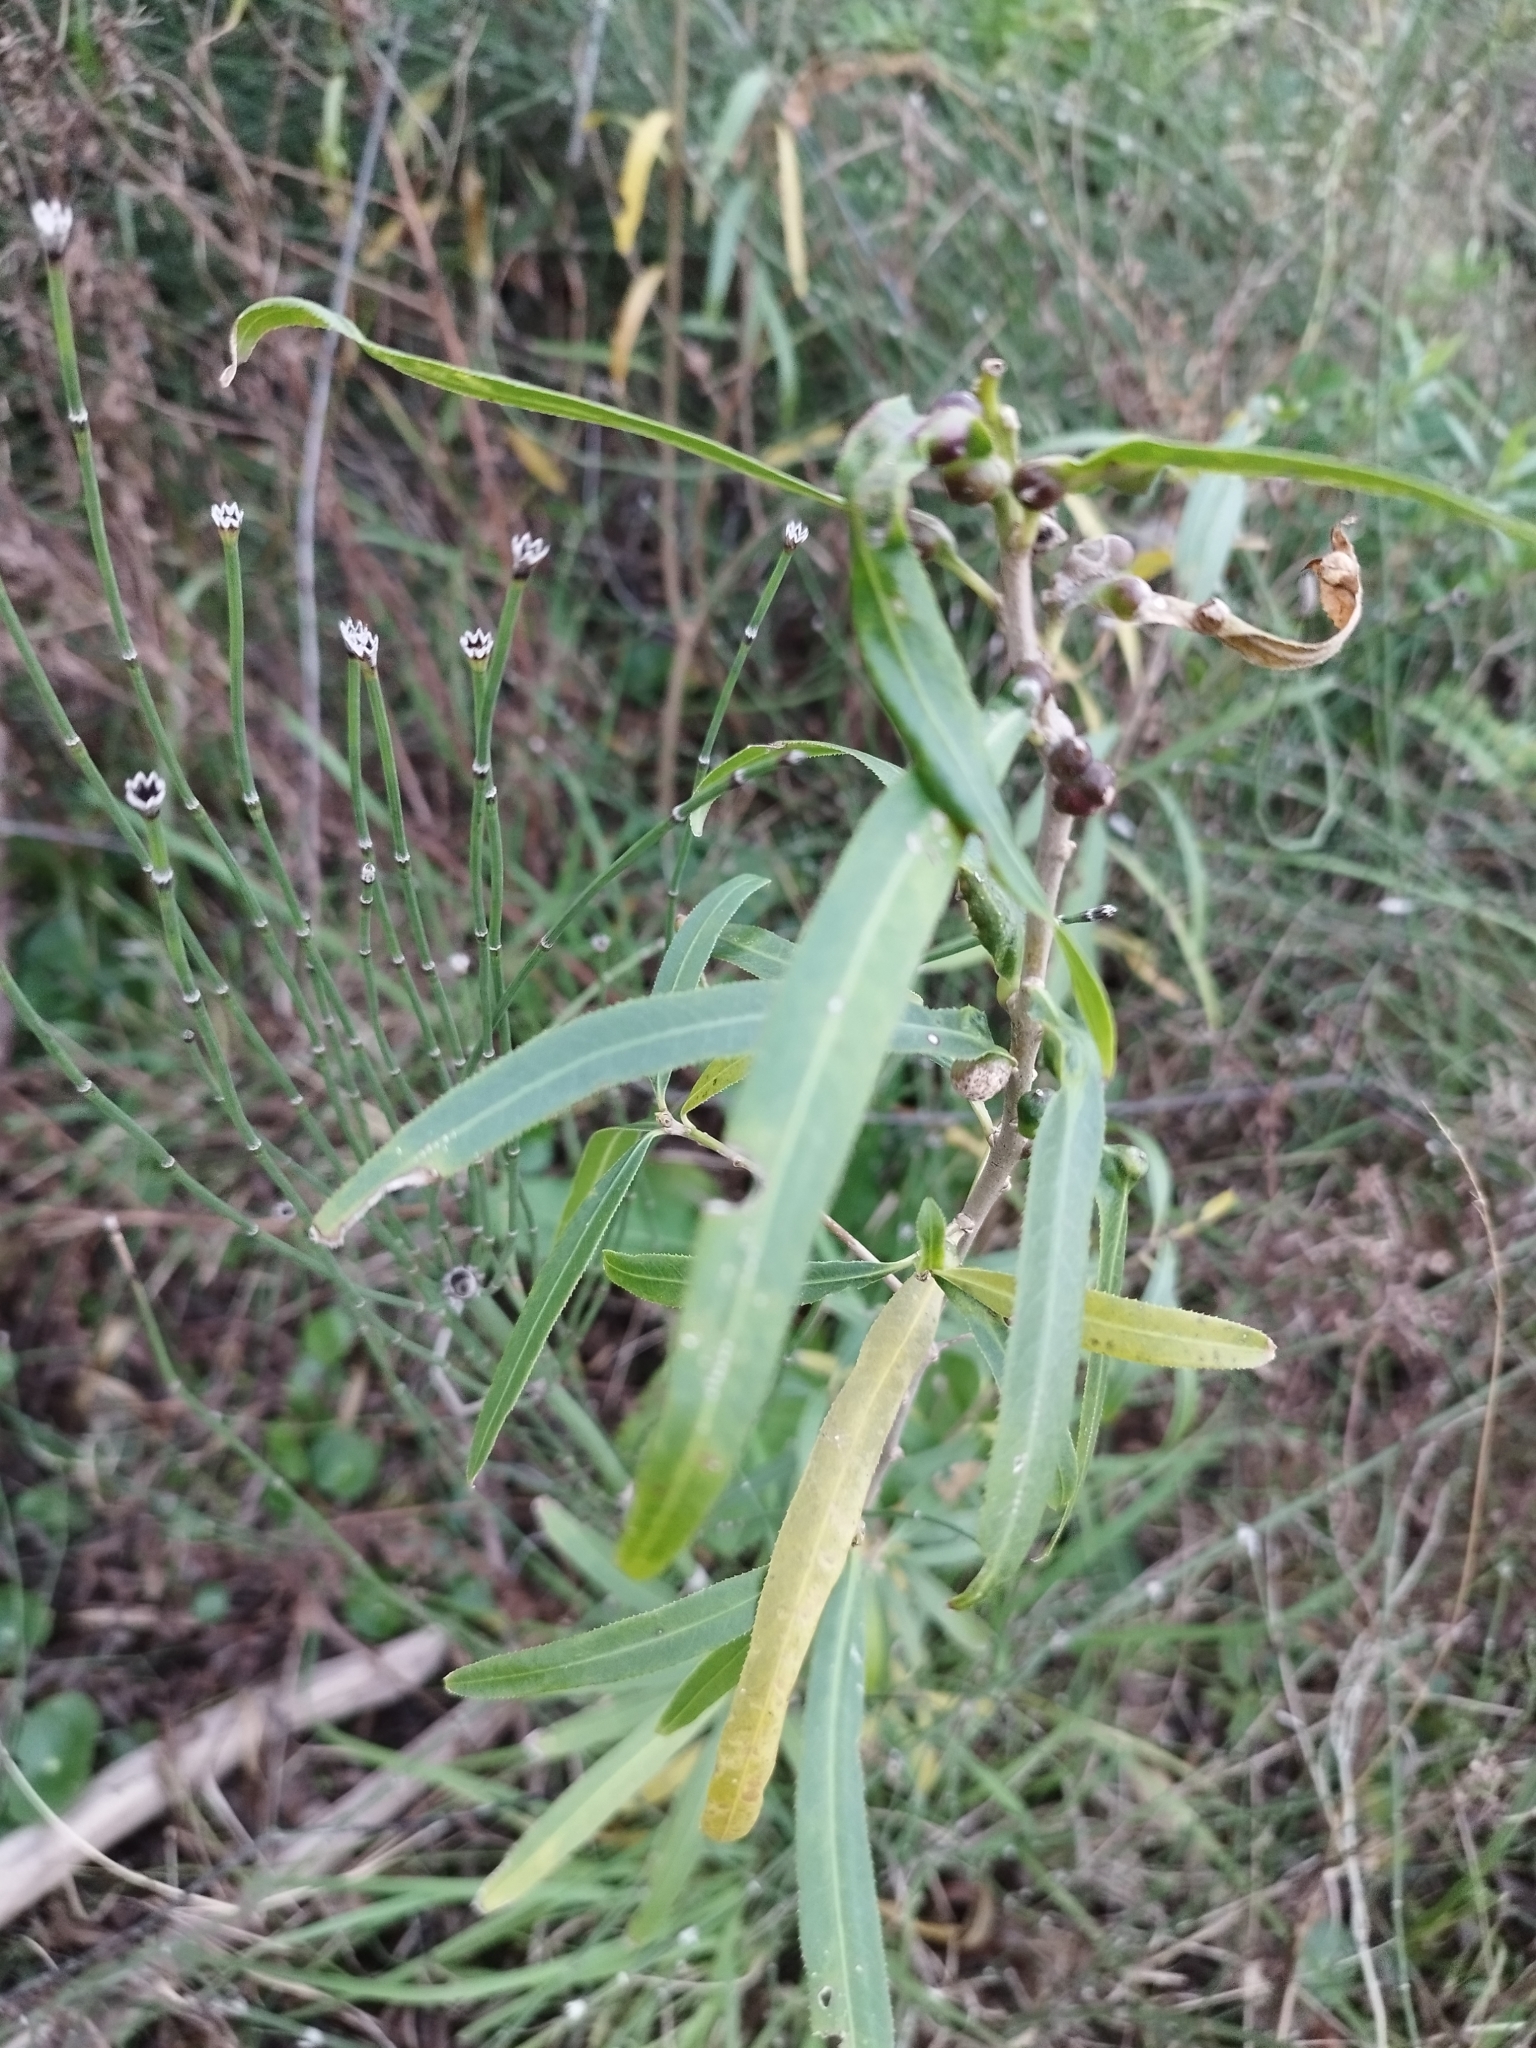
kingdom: Plantae
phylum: Tracheophyta
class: Magnoliopsida
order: Malpighiales
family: Euphorbiaceae
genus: Sapium
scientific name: Sapium haematospermum
